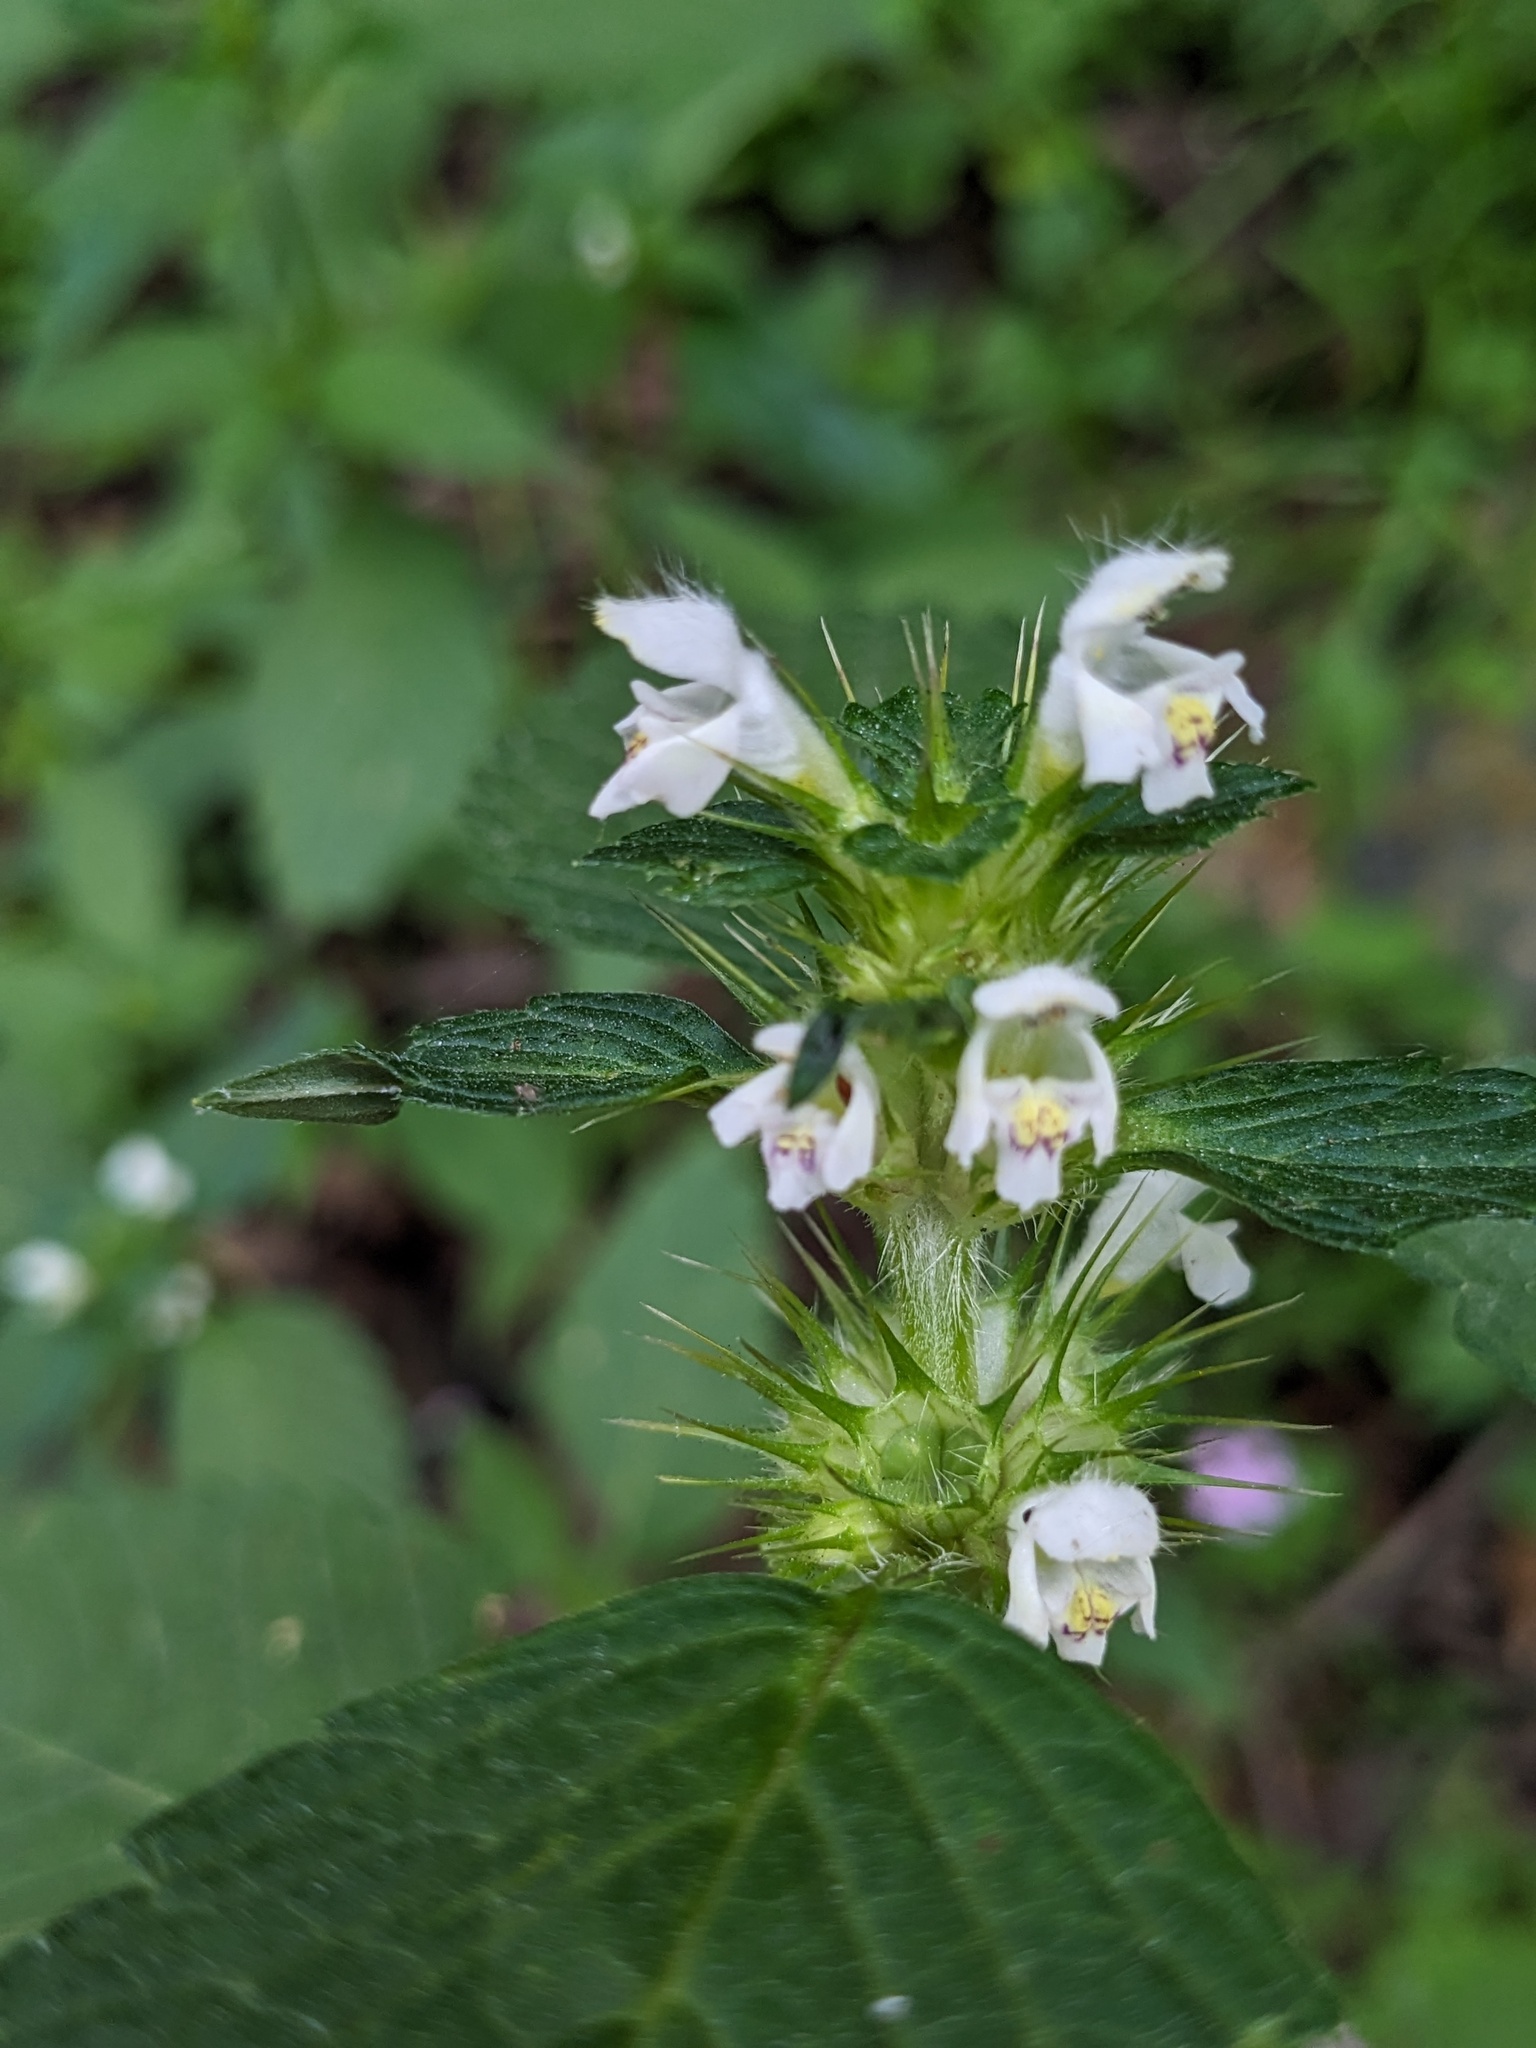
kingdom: Plantae
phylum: Tracheophyta
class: Magnoliopsida
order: Lamiales
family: Lamiaceae
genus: Galeopsis
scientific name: Galeopsis tetrahit
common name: Common hemp-nettle
